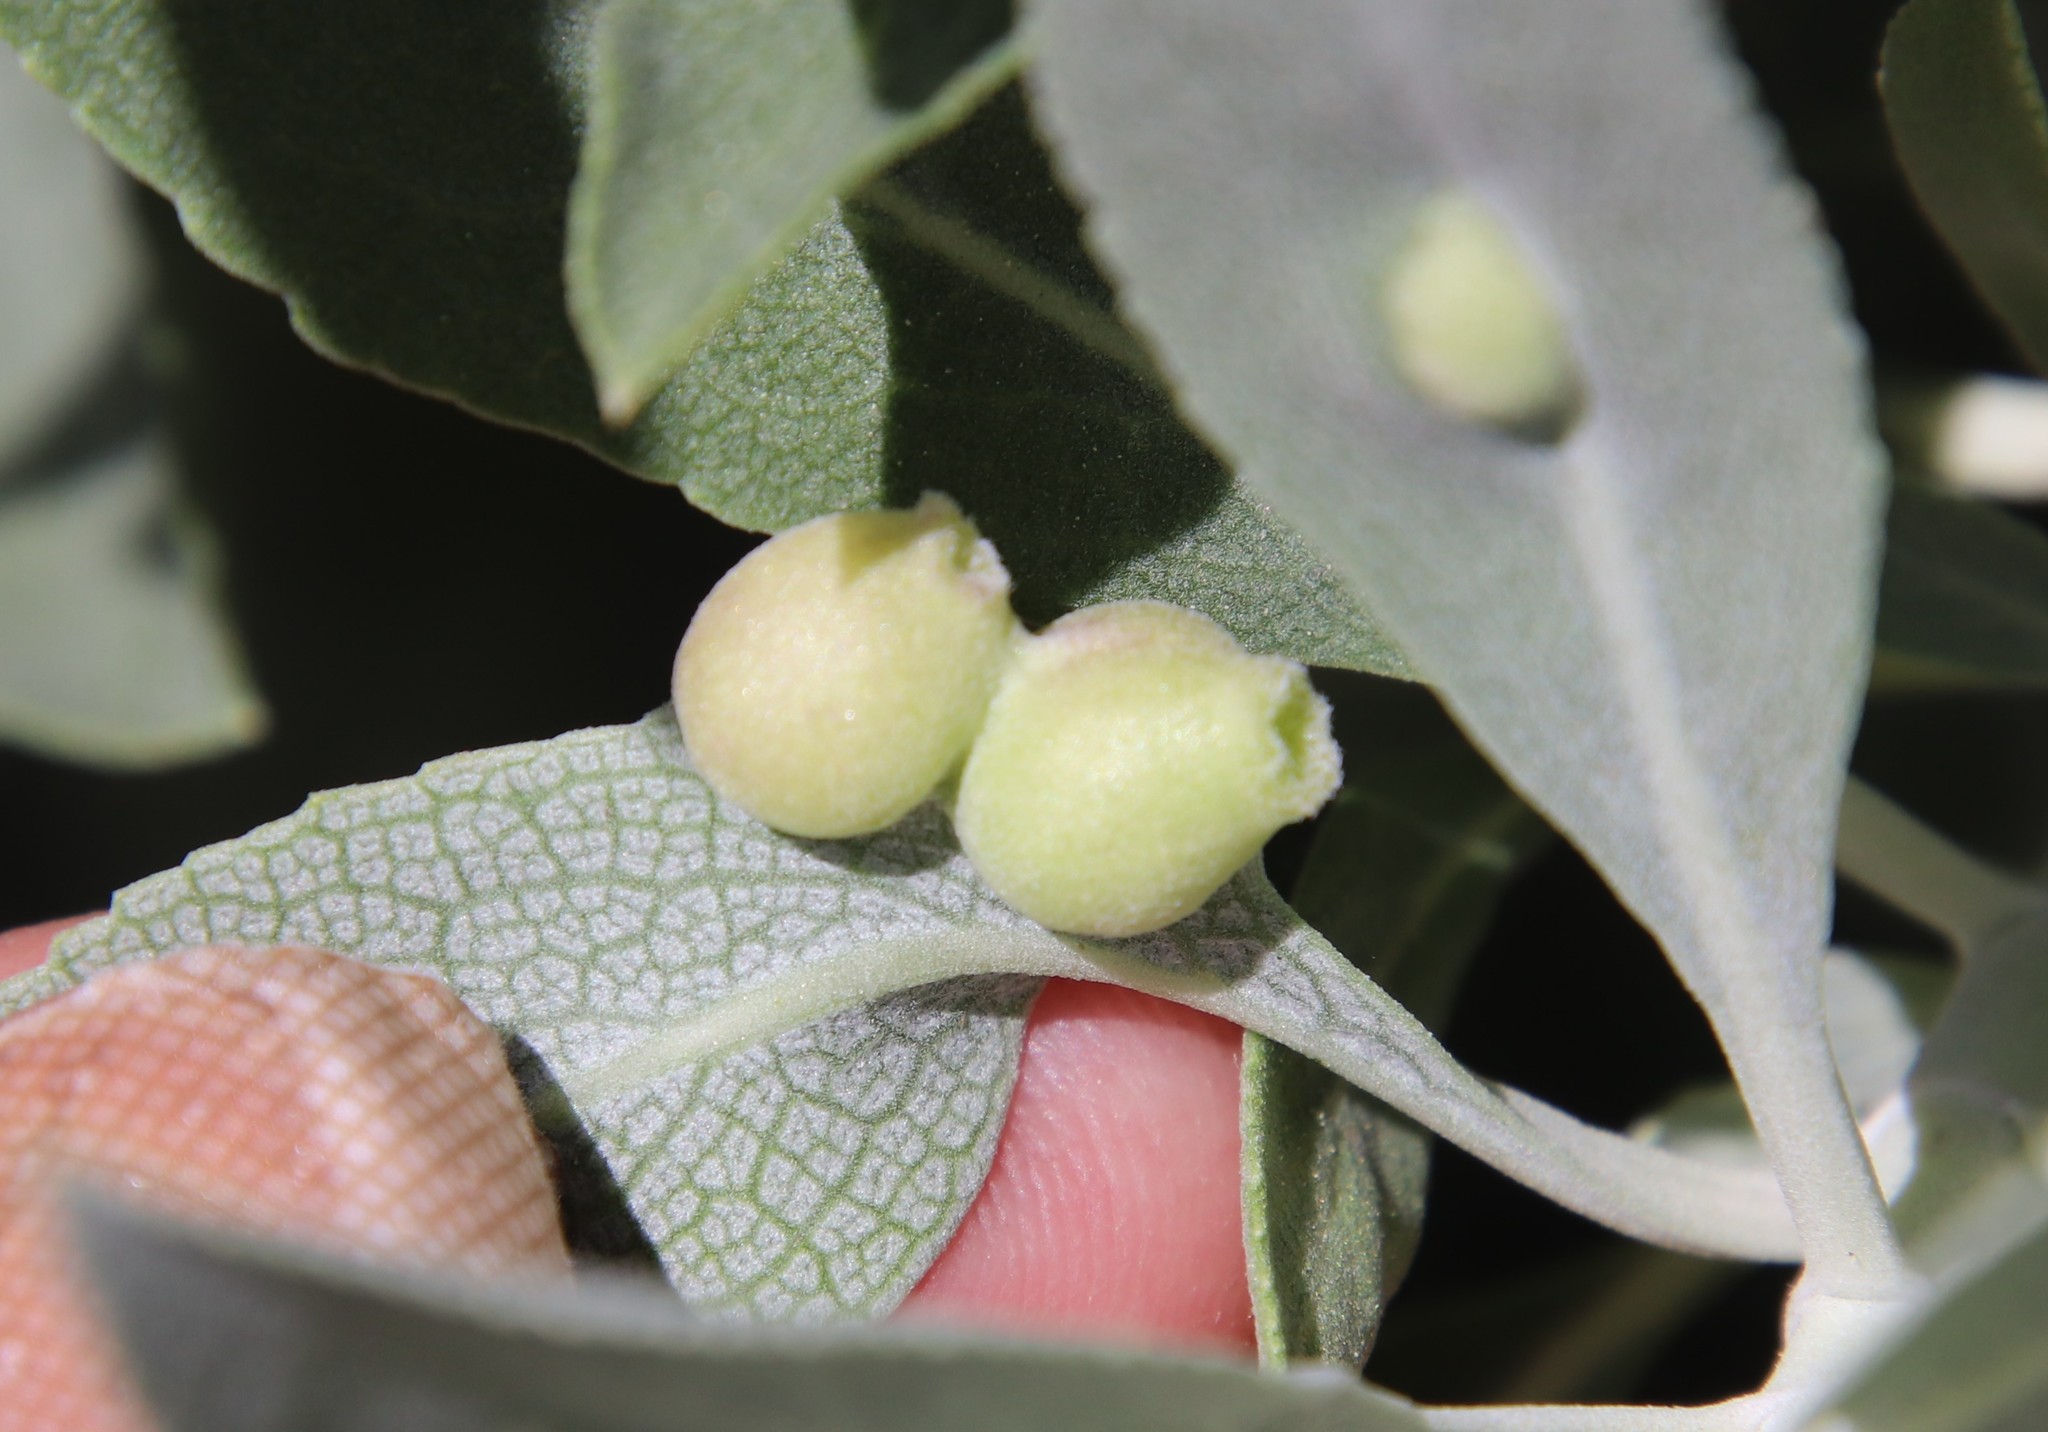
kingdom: Animalia
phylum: Arthropoda
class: Insecta
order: Diptera
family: Cecidomyiidae
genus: Rhopalomyia
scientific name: Rhopalomyia audibertiae
